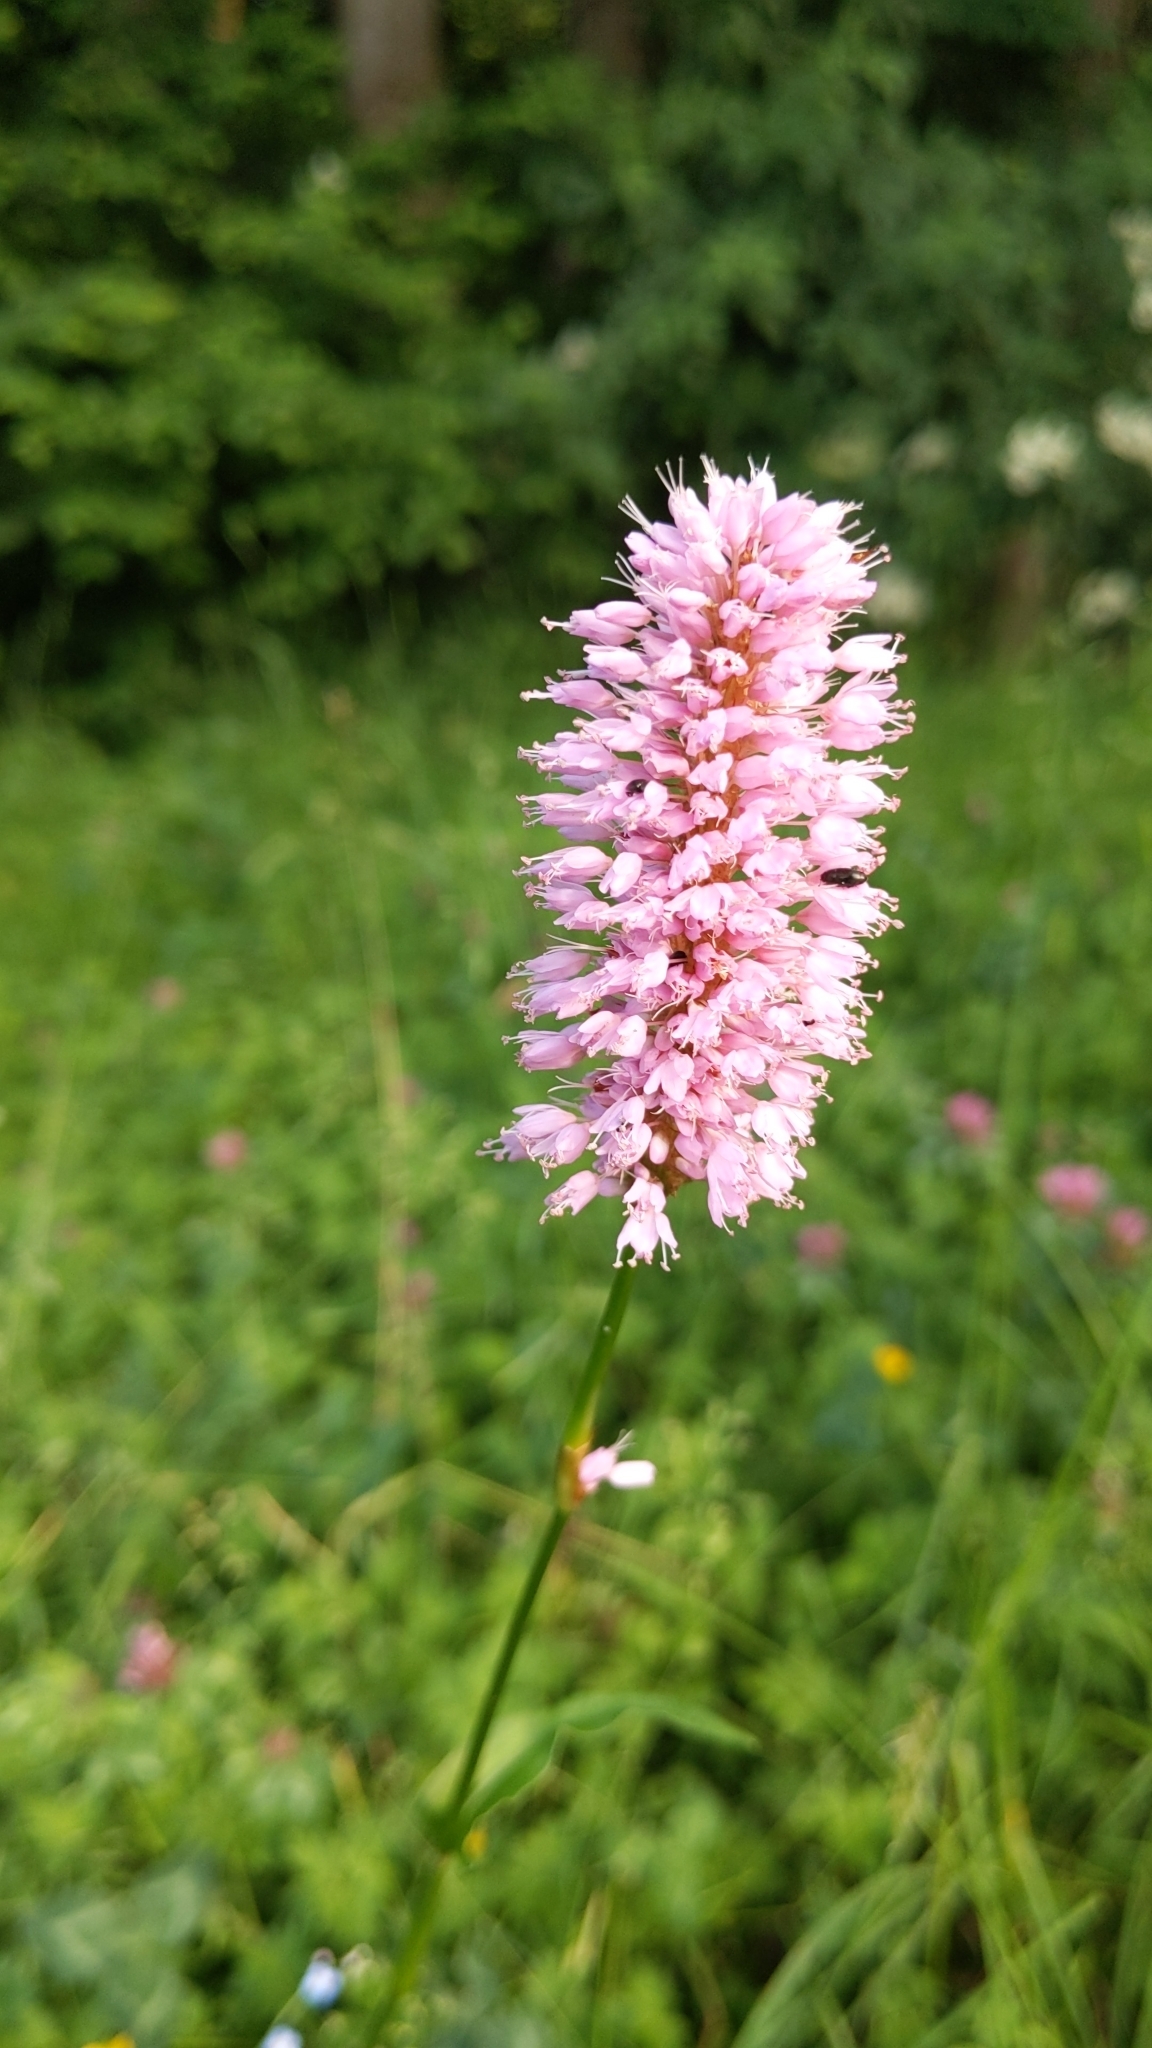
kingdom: Plantae
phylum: Tracheophyta
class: Magnoliopsida
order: Caryophyllales
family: Polygonaceae
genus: Bistorta
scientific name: Bistorta officinalis
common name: Common bistort
